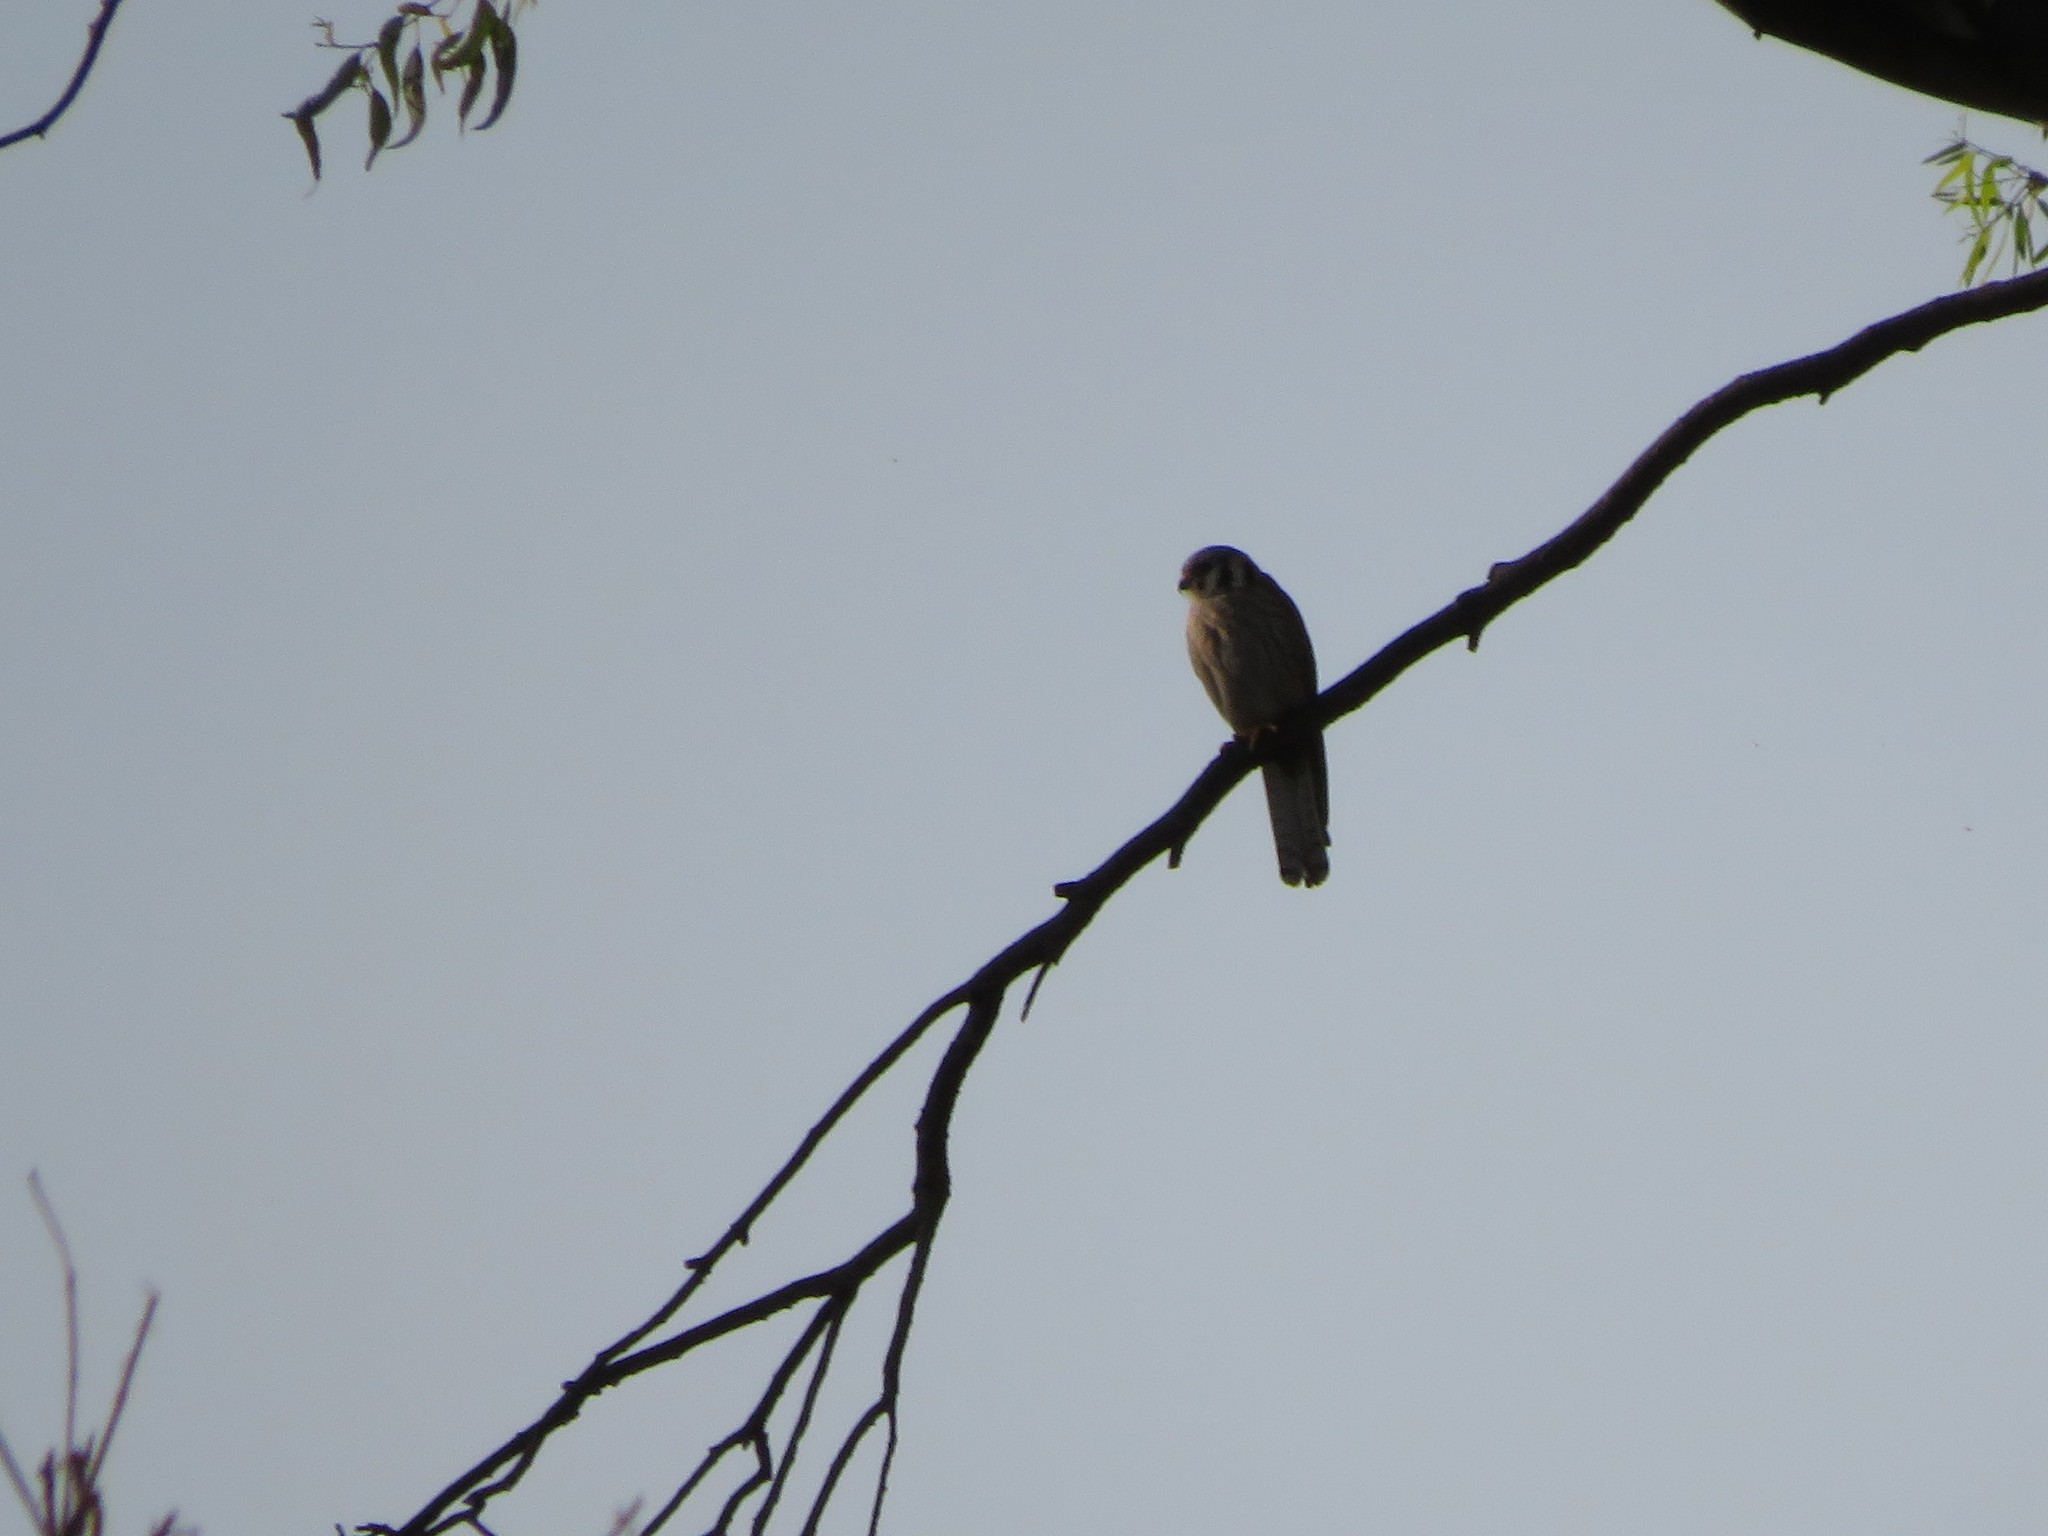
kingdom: Animalia
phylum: Chordata
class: Aves
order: Falconiformes
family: Falconidae
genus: Falco
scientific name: Falco sparverius
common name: American kestrel
